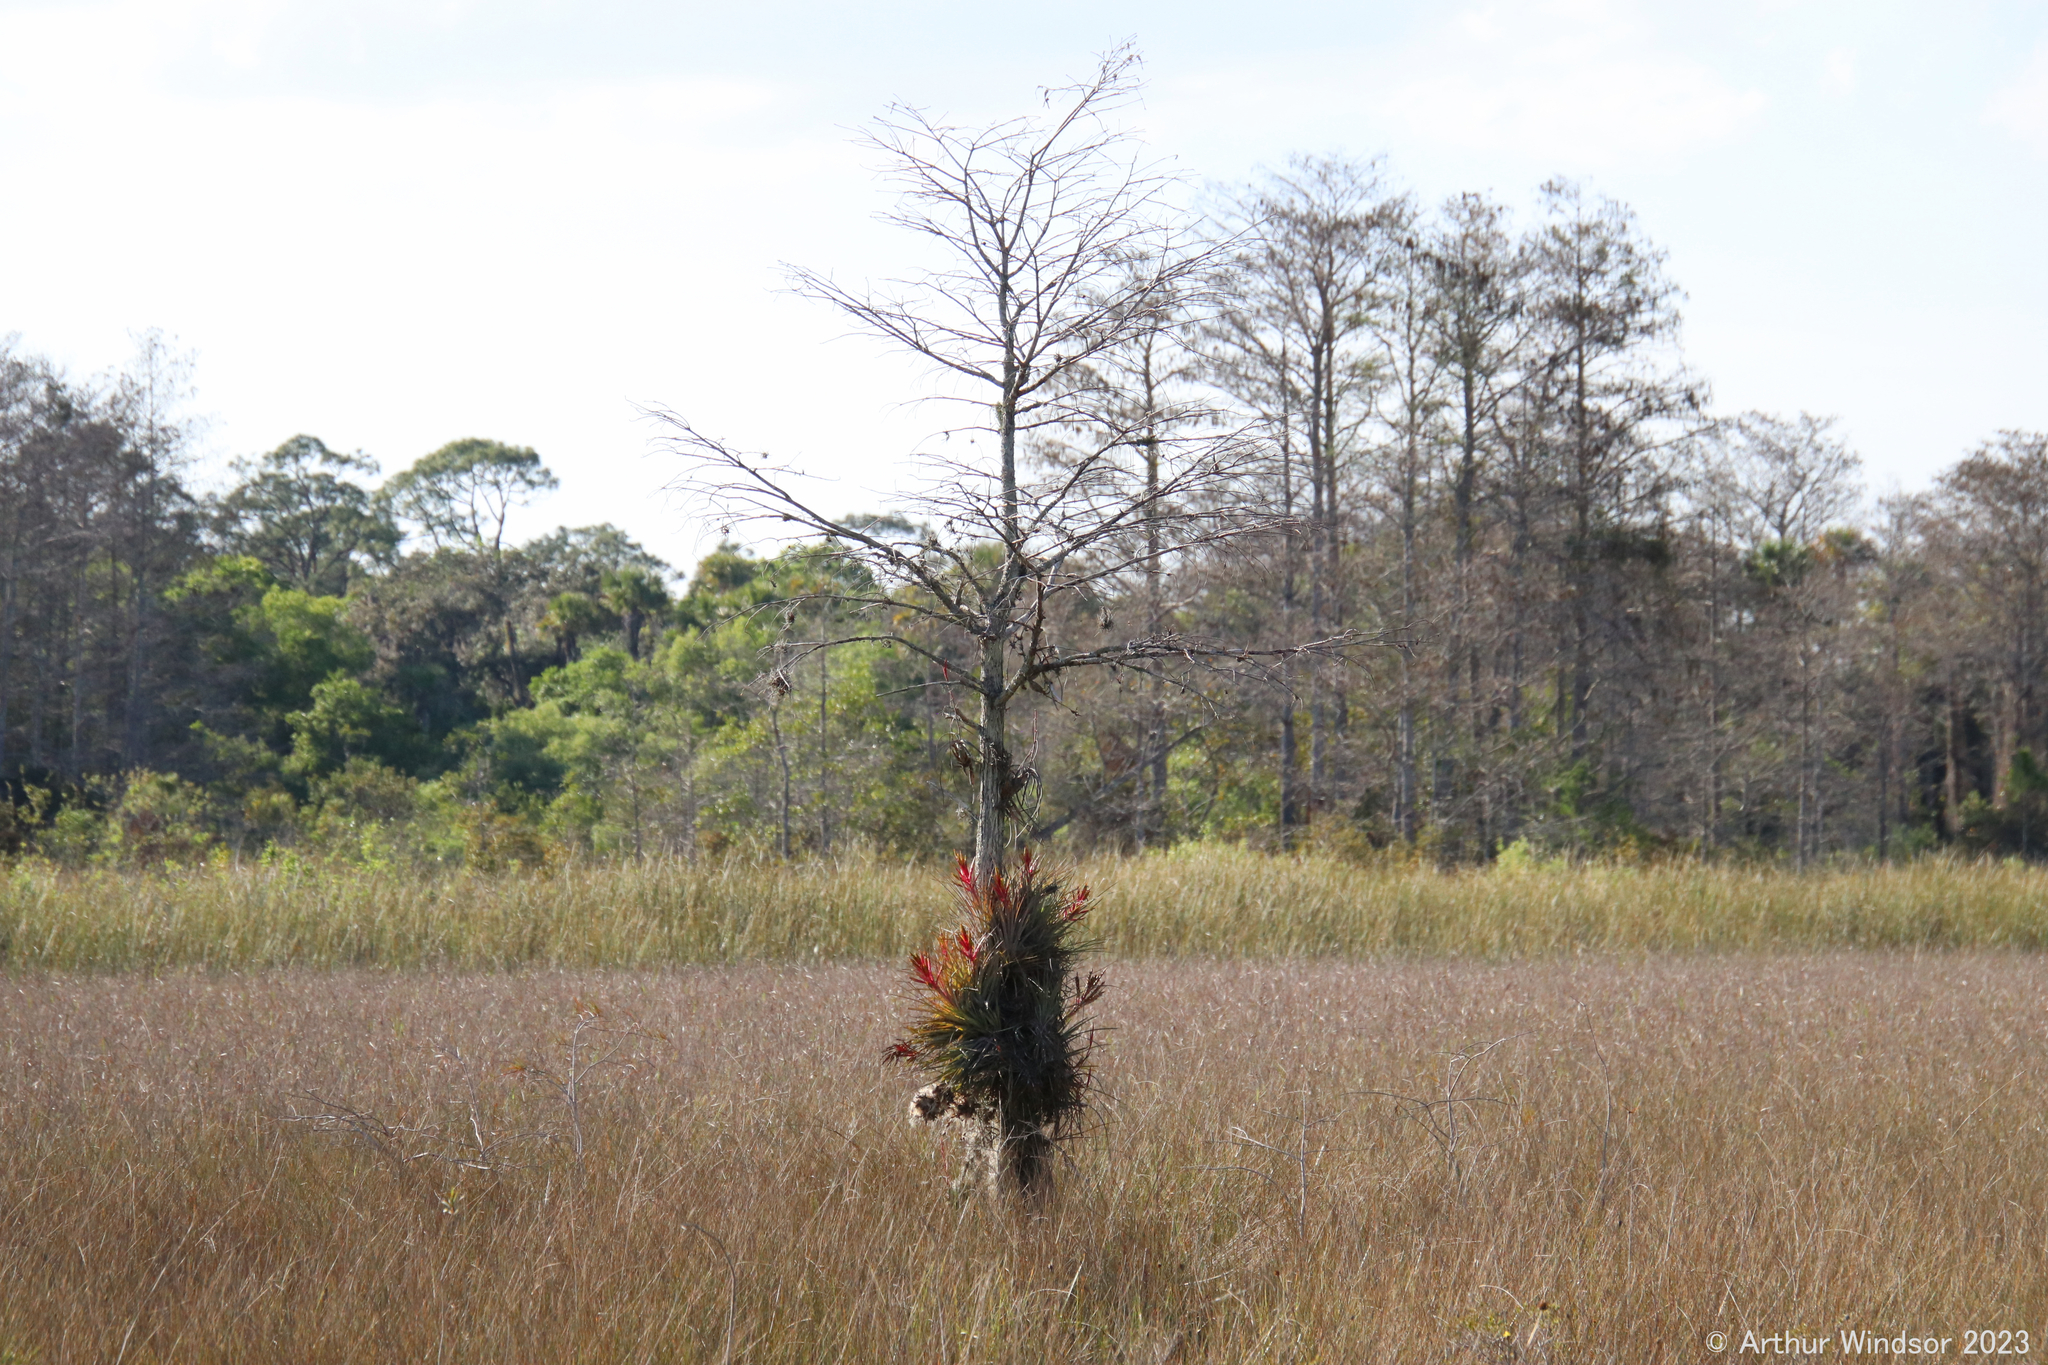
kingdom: Plantae
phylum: Tracheophyta
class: Liliopsida
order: Poales
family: Bromeliaceae
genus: Tillandsia
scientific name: Tillandsia fasciculata
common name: Giant airplant
